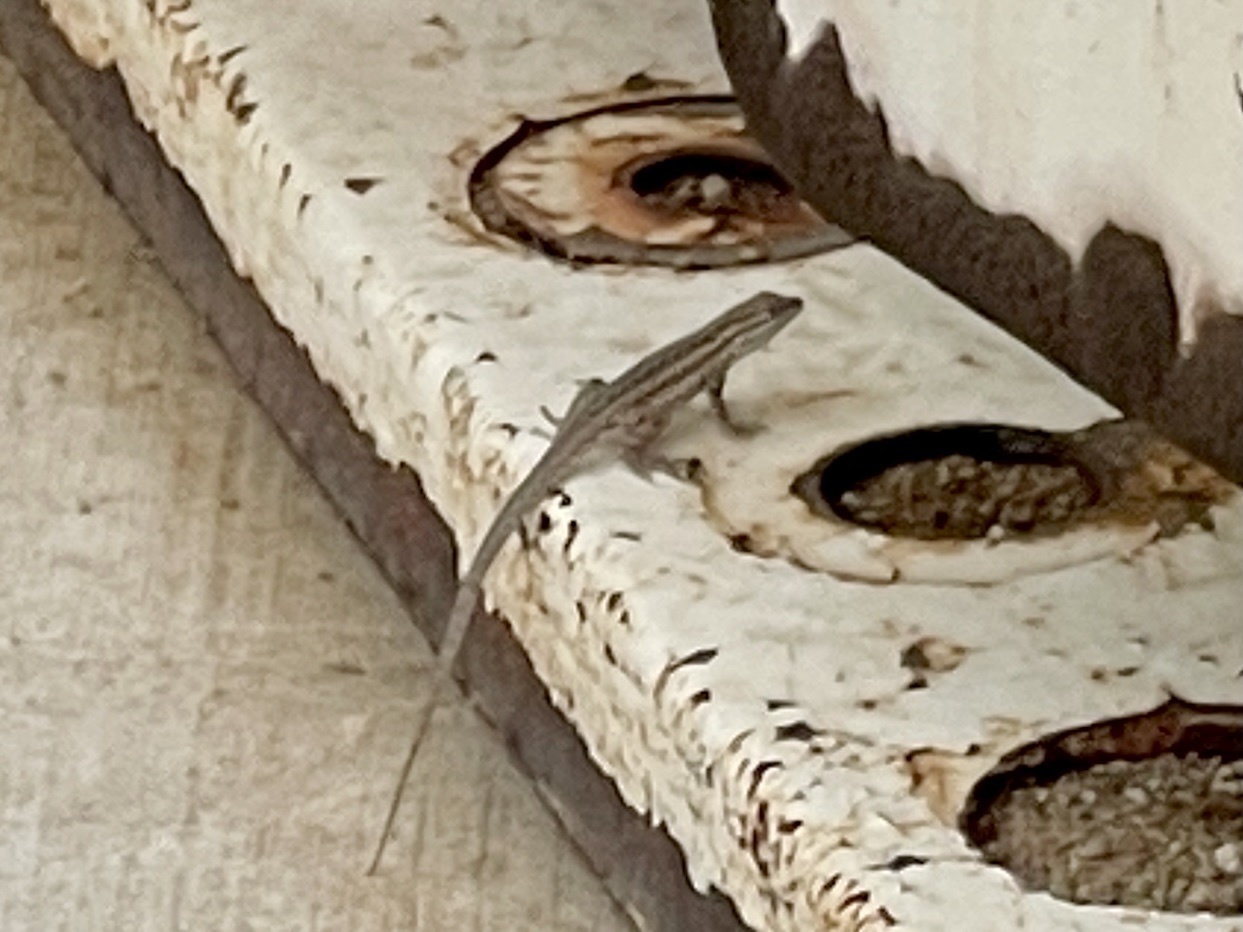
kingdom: Animalia
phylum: Chordata
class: Squamata
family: Phrynosomatidae
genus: Sceloporus
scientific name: Sceloporus cowlesi
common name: White sands prairie lizard
